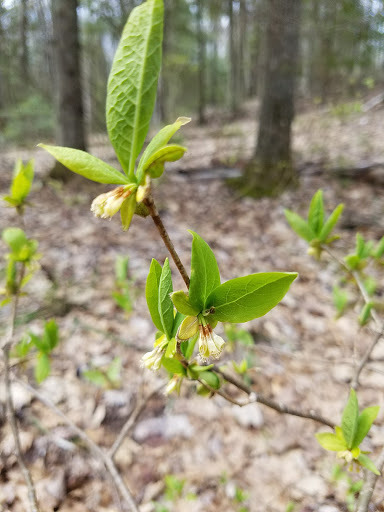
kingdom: Plantae
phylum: Tracheophyta
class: Magnoliopsida
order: Malvales
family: Thymelaeaceae
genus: Dirca
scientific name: Dirca palustris
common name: Leatherwood
